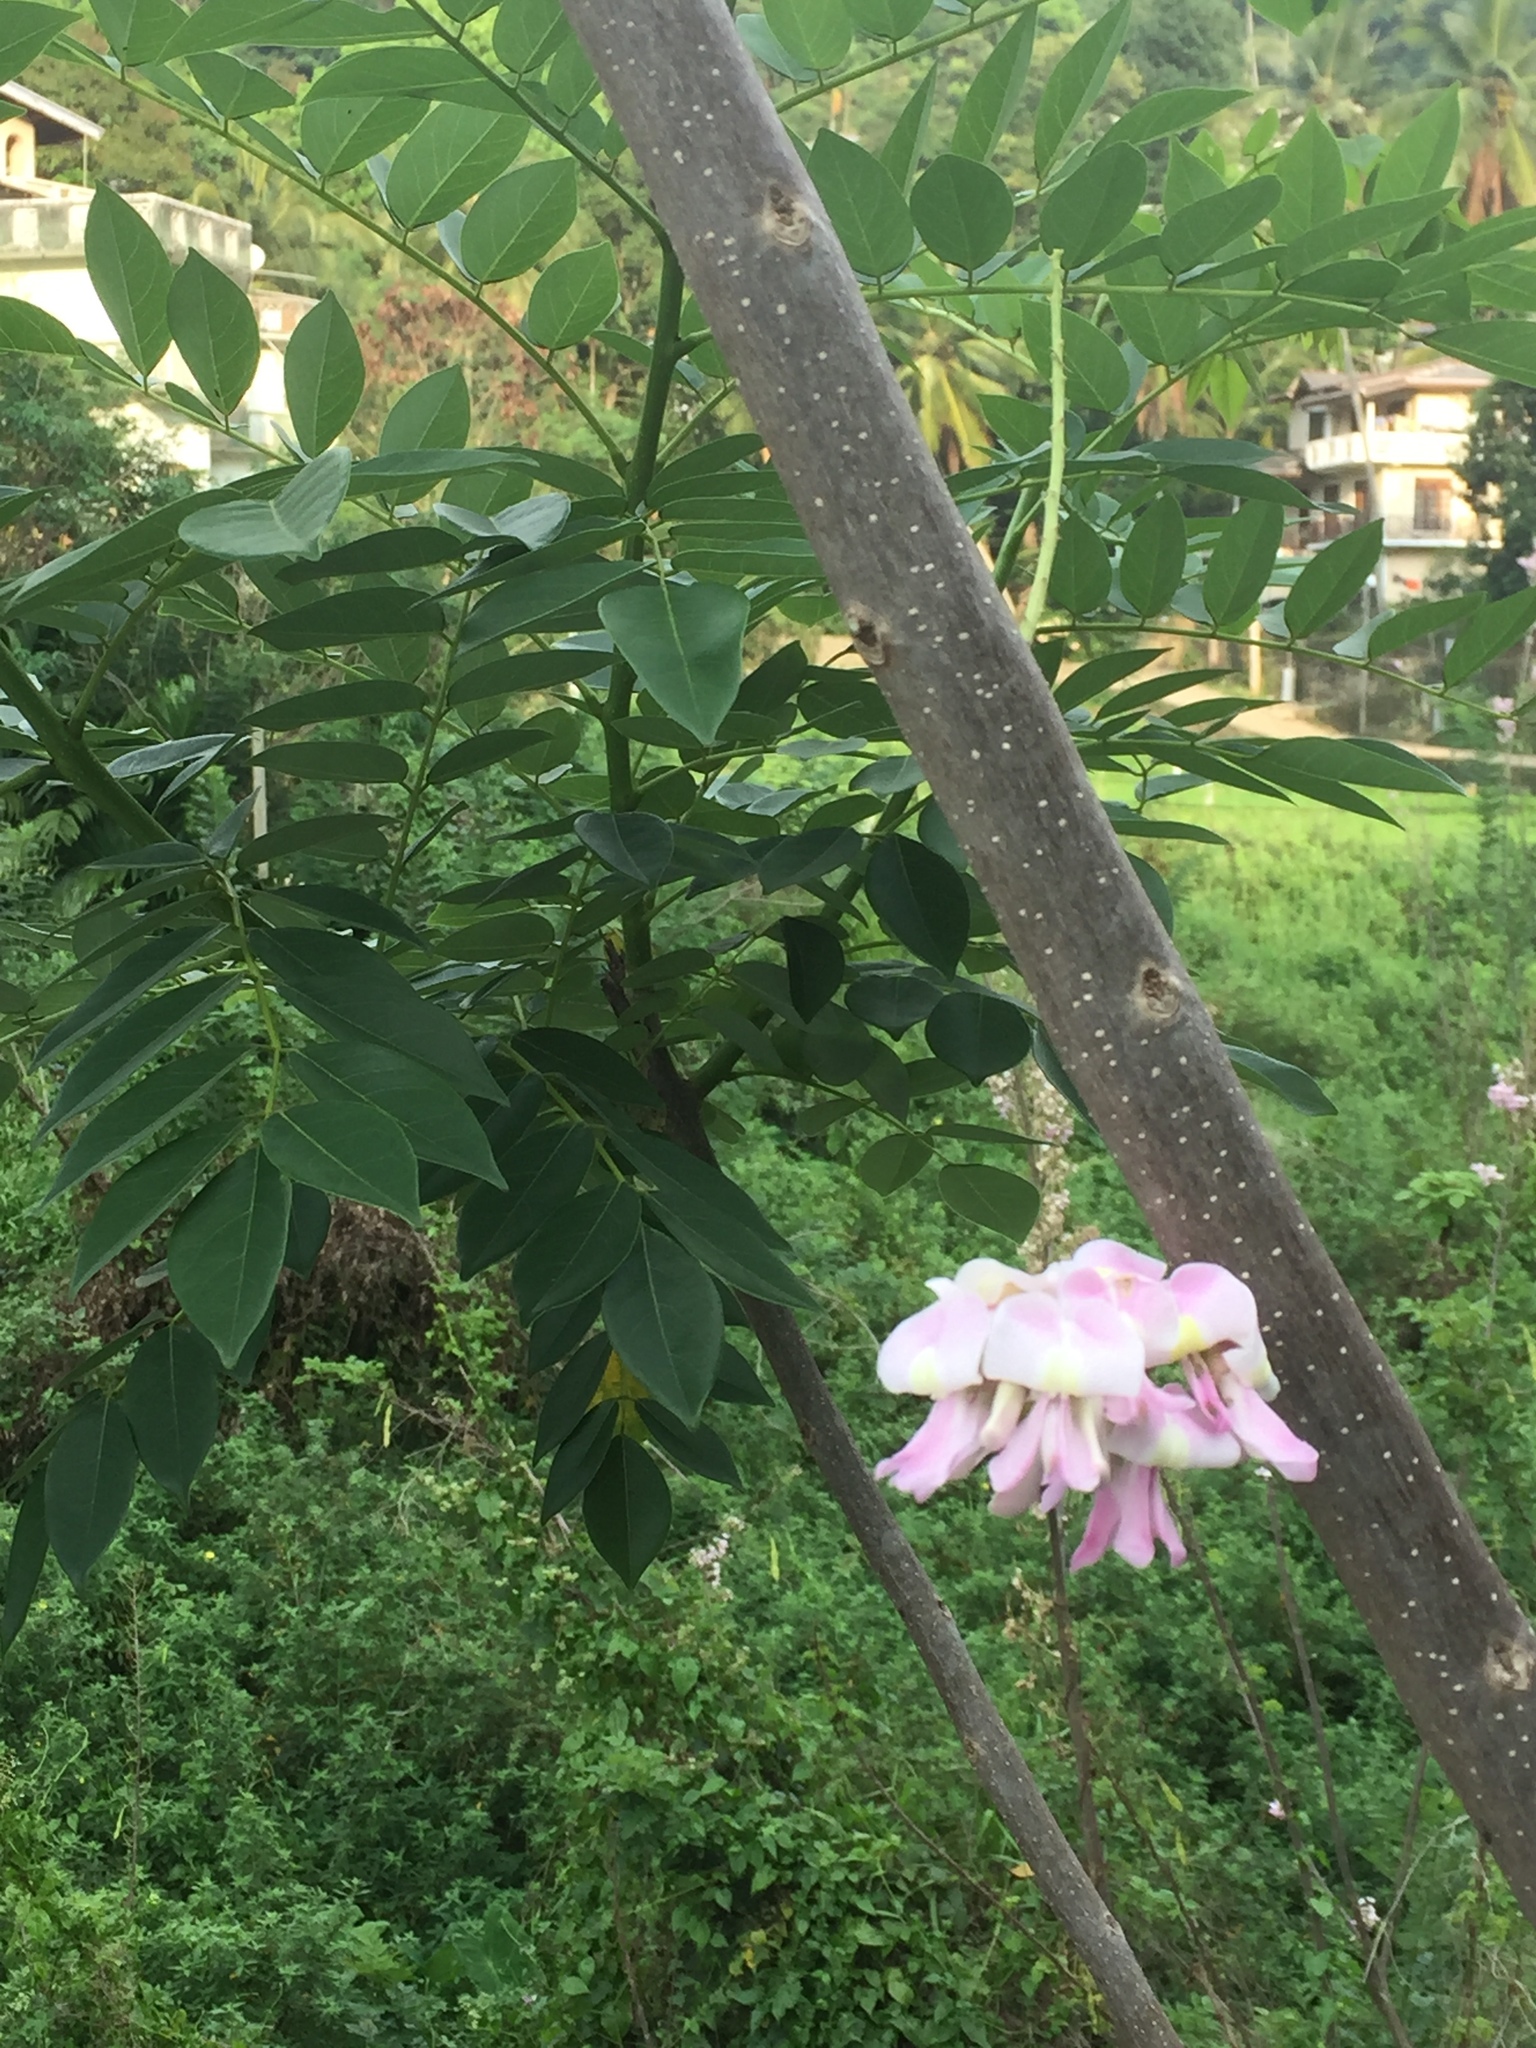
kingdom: Plantae
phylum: Tracheophyta
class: Magnoliopsida
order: Fabales
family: Fabaceae
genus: Gliricidia
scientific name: Gliricidia sepium
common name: Quickstick
